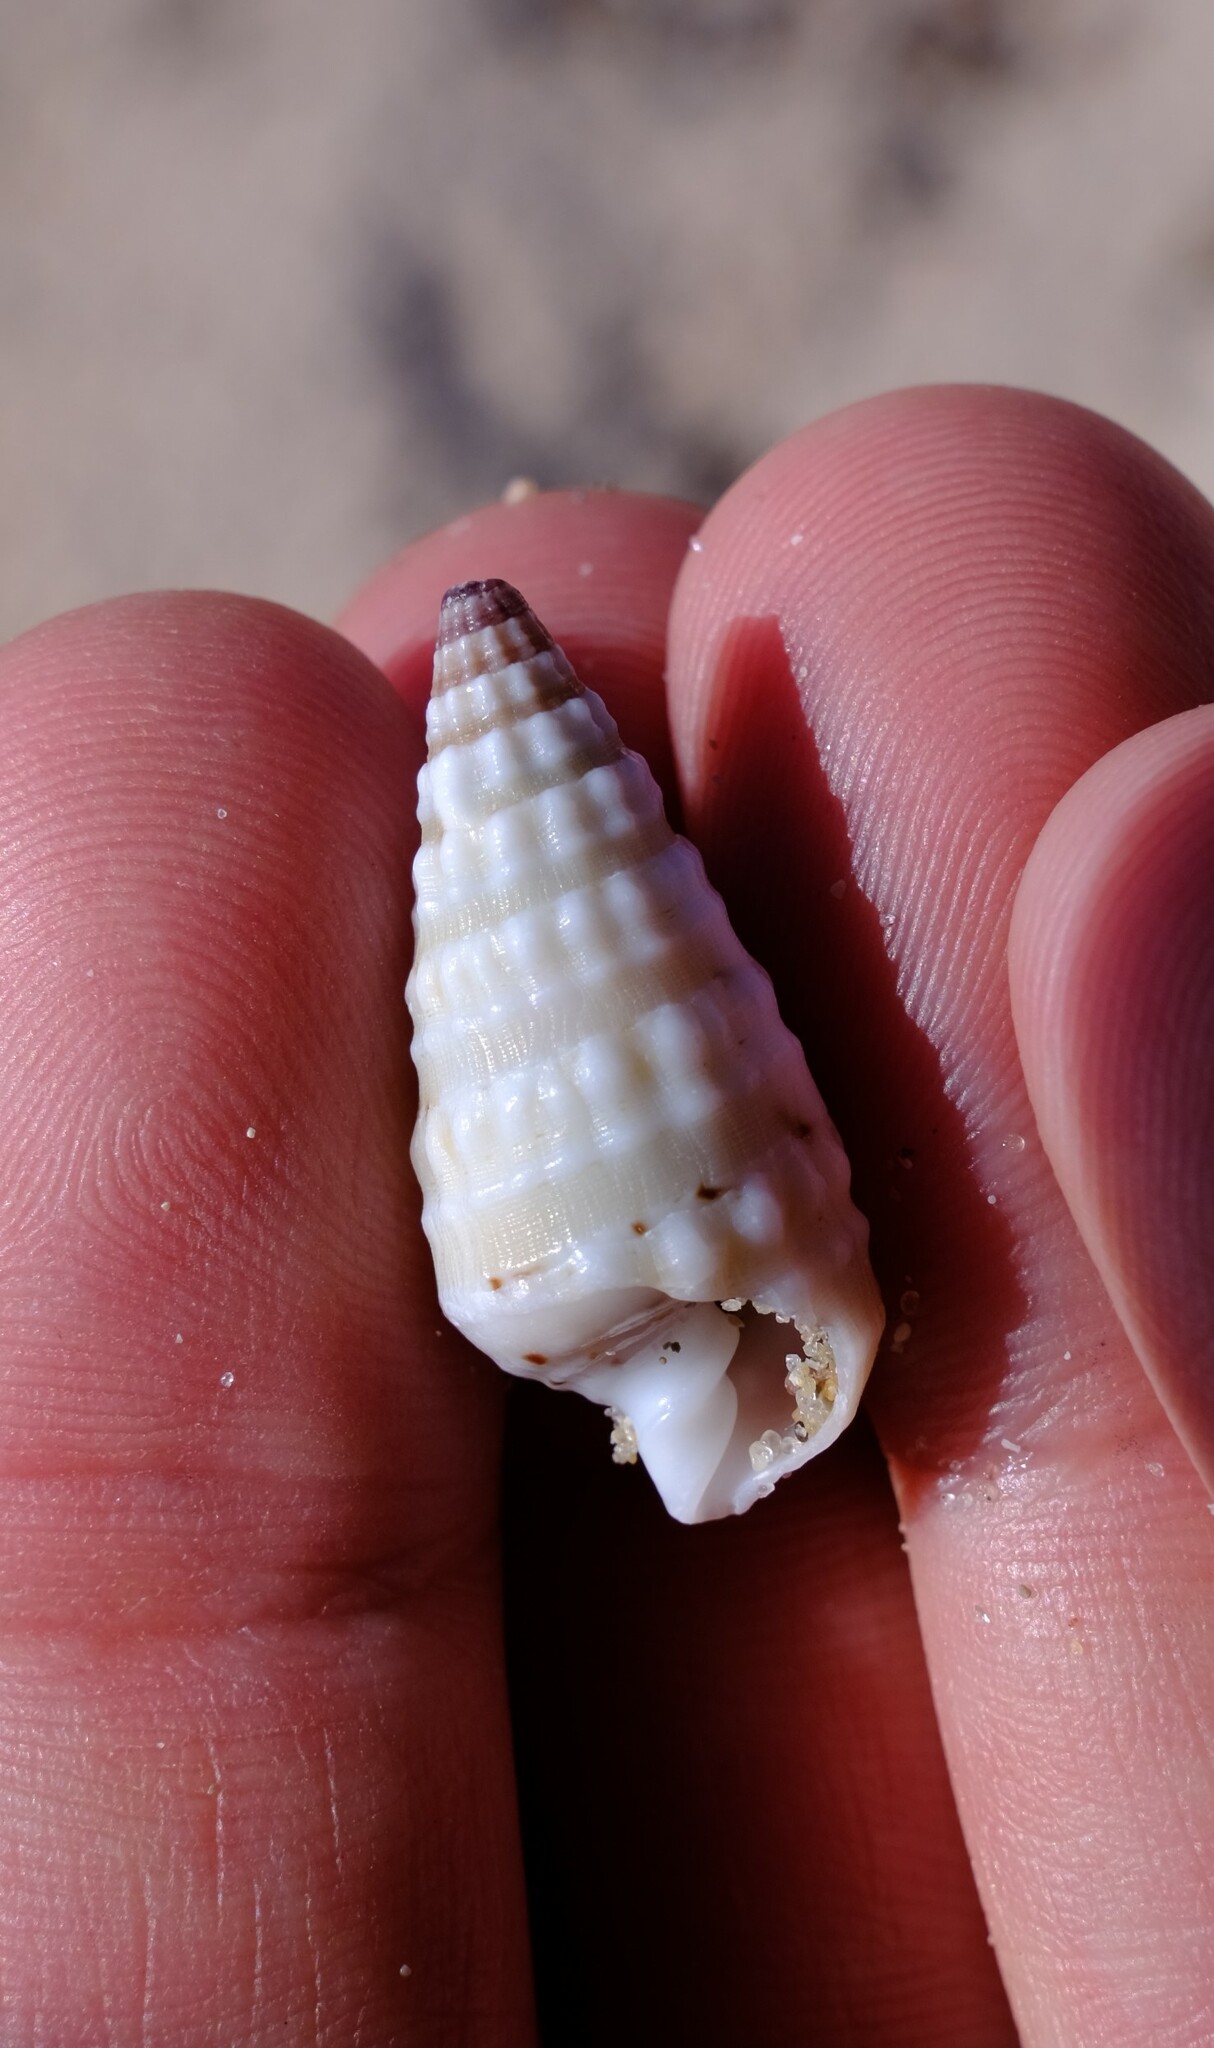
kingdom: Animalia
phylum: Mollusca
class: Gastropoda
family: Cerithiidae
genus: Rhinoclavis
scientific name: Rhinoclavis bituberculata
